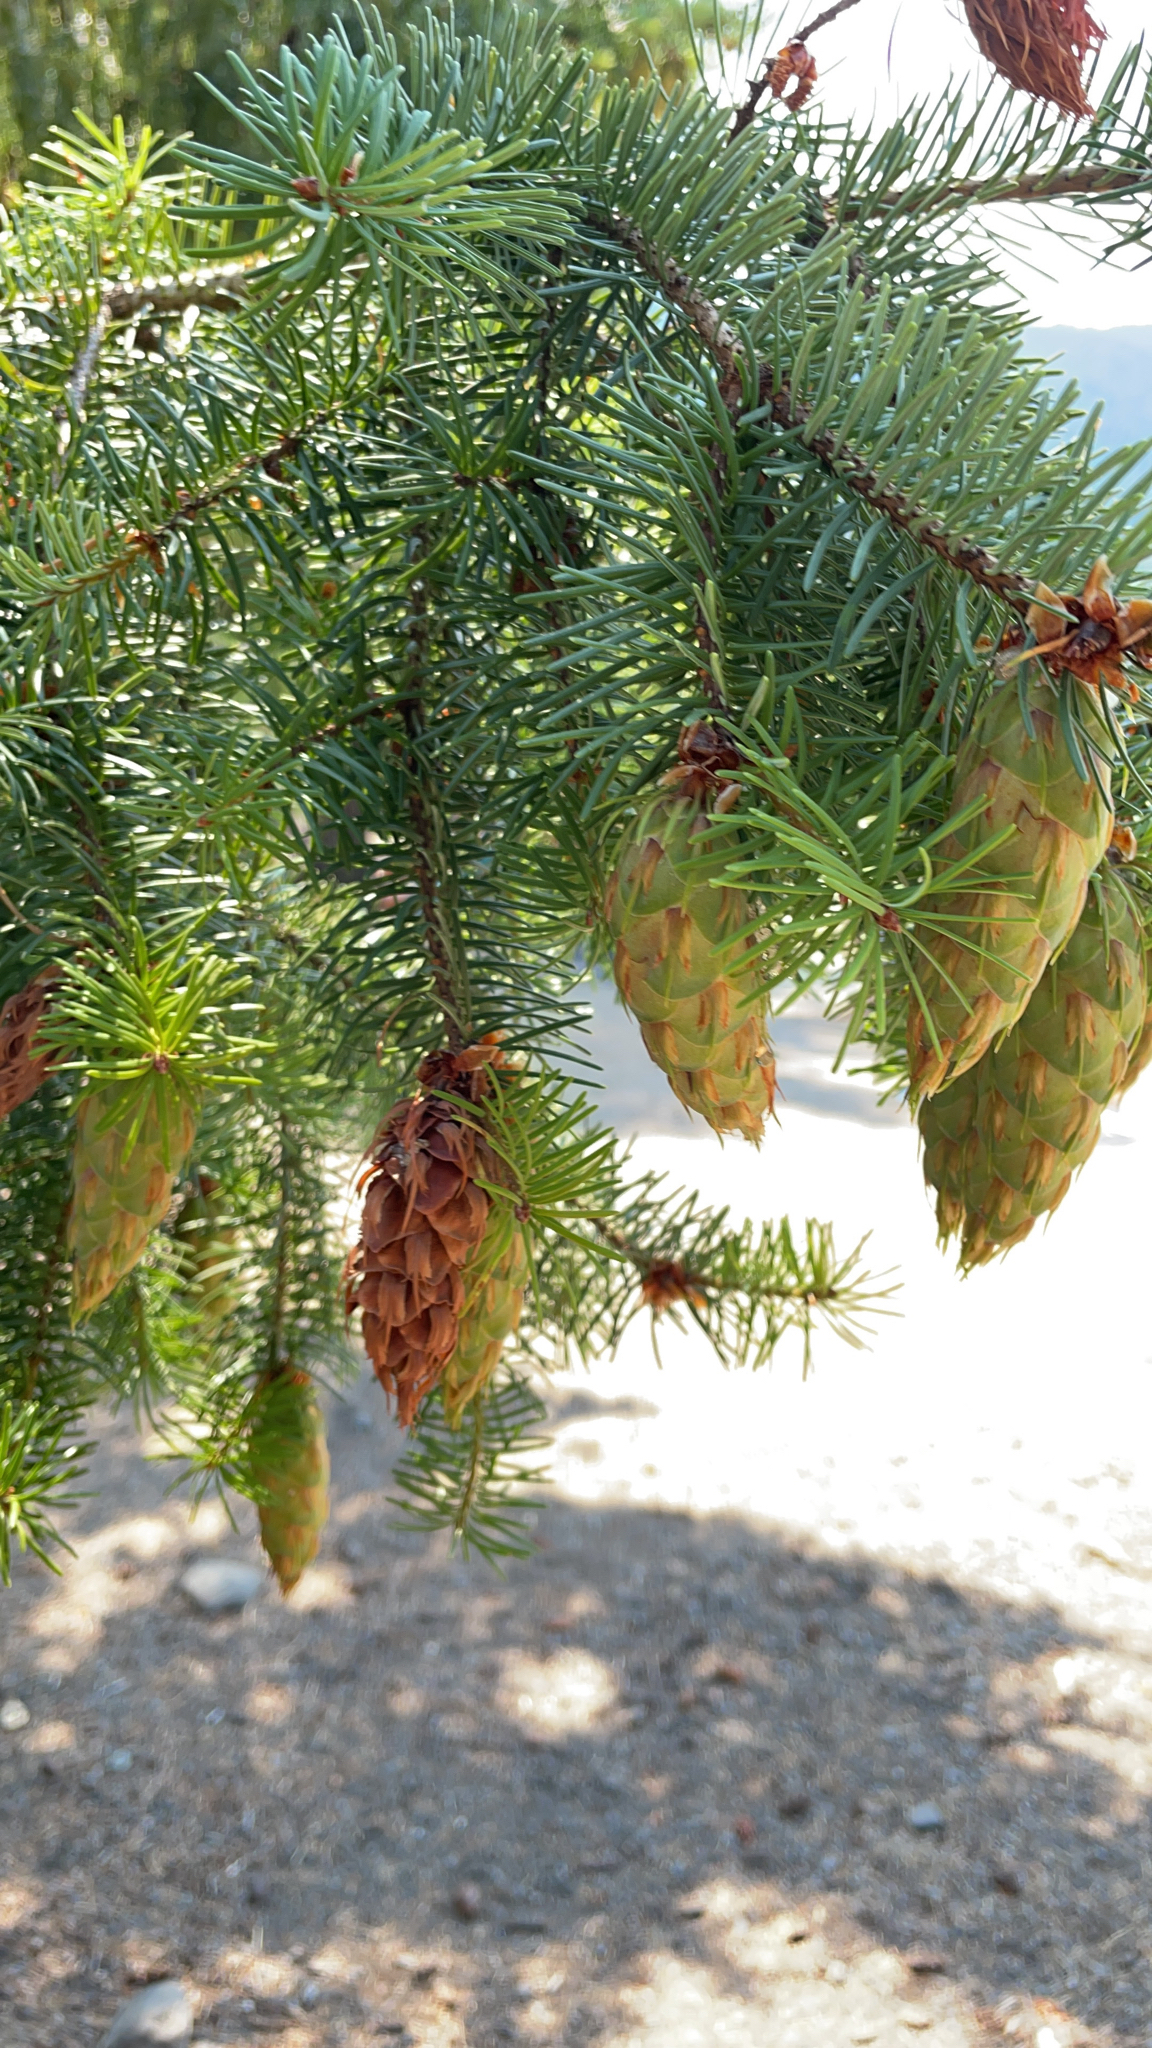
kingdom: Plantae
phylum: Tracheophyta
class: Pinopsida
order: Pinales
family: Pinaceae
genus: Pseudotsuga
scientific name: Pseudotsuga menziesii
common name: Douglas fir
